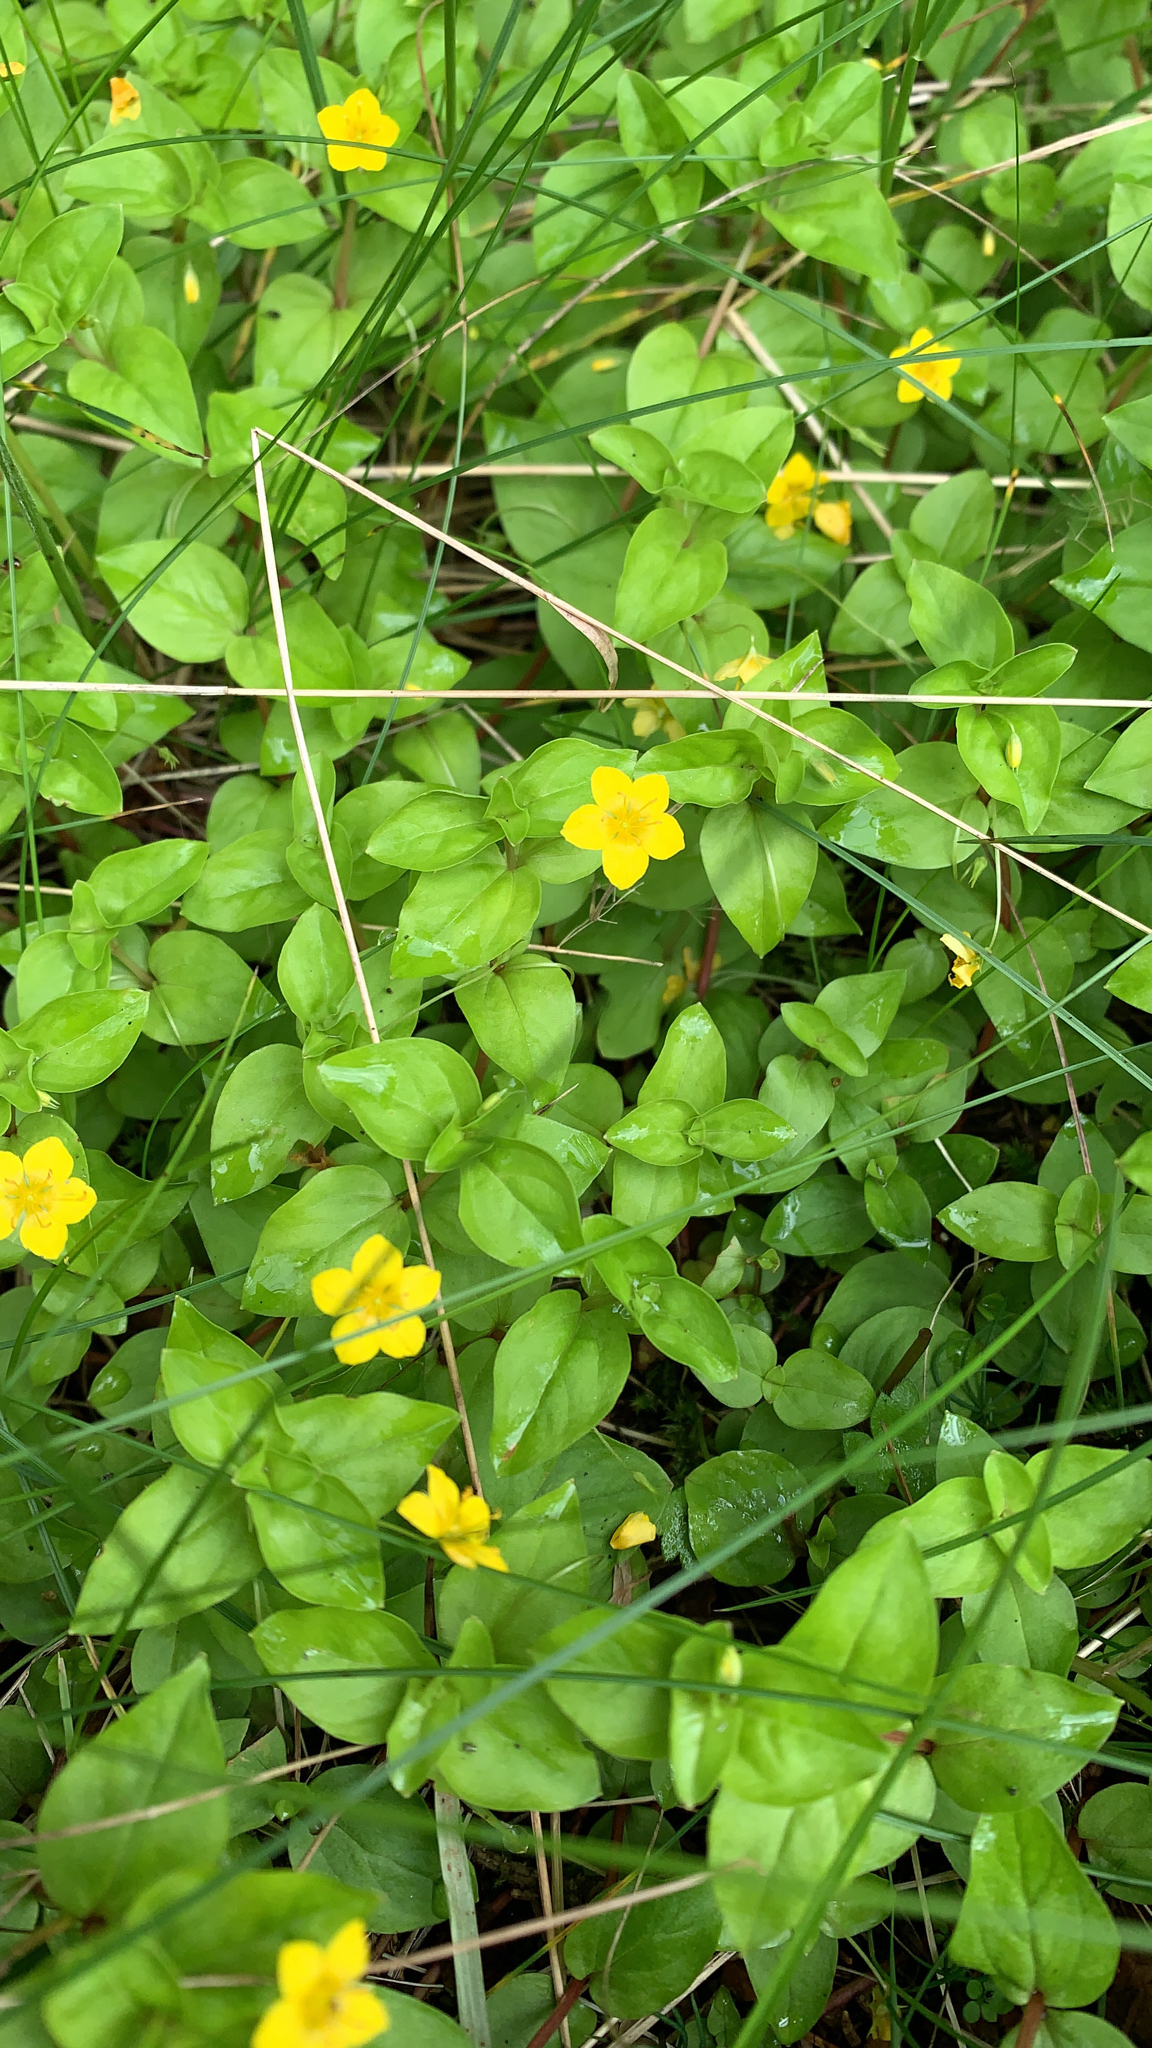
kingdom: Plantae
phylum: Tracheophyta
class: Magnoliopsida
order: Ericales
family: Primulaceae
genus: Lysimachia
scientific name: Lysimachia nemorum
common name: Yellow pimpernel
